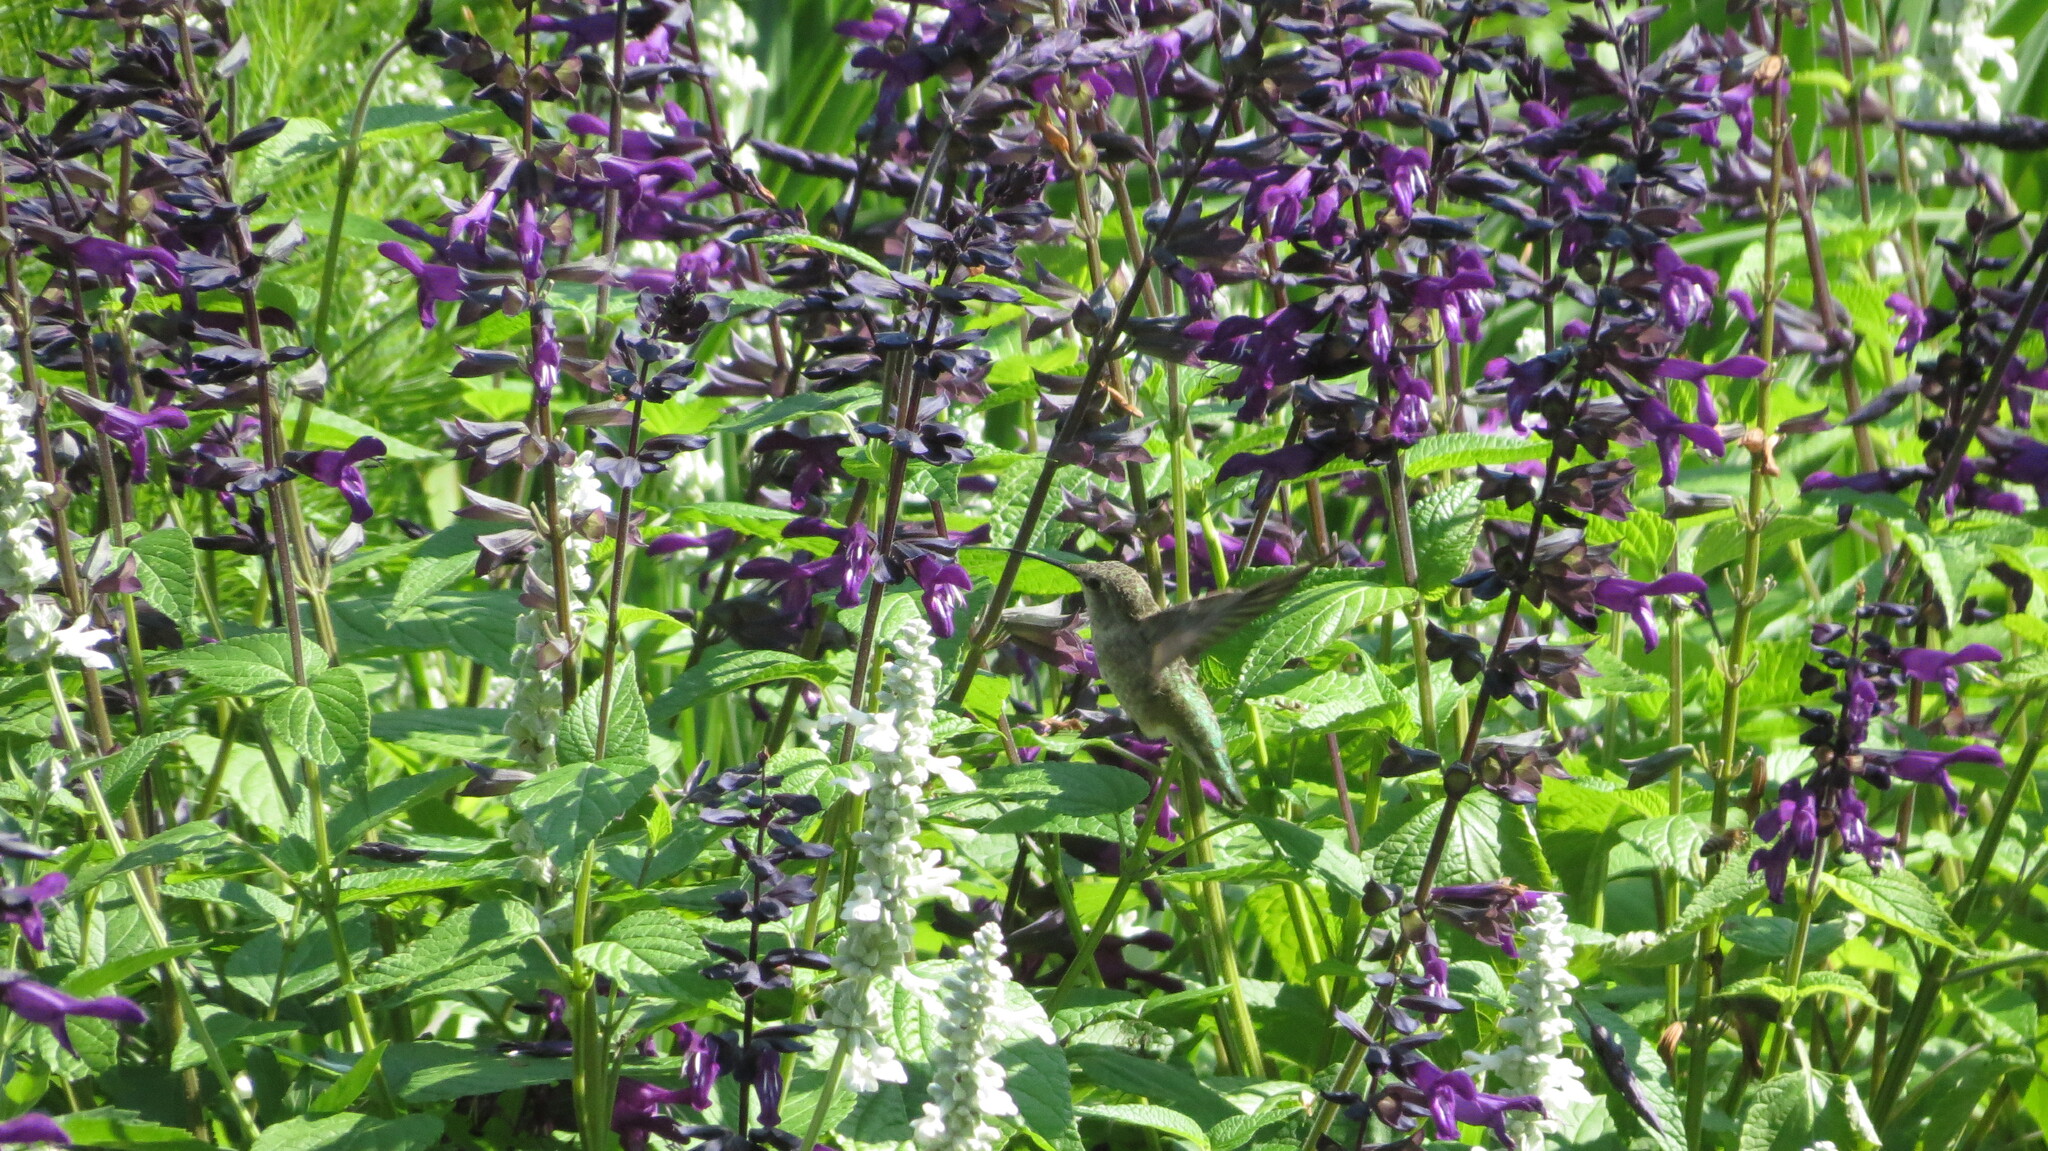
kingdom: Animalia
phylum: Chordata
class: Aves
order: Apodiformes
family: Trochilidae
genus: Calypte
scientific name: Calypte anna
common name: Anna's hummingbird
